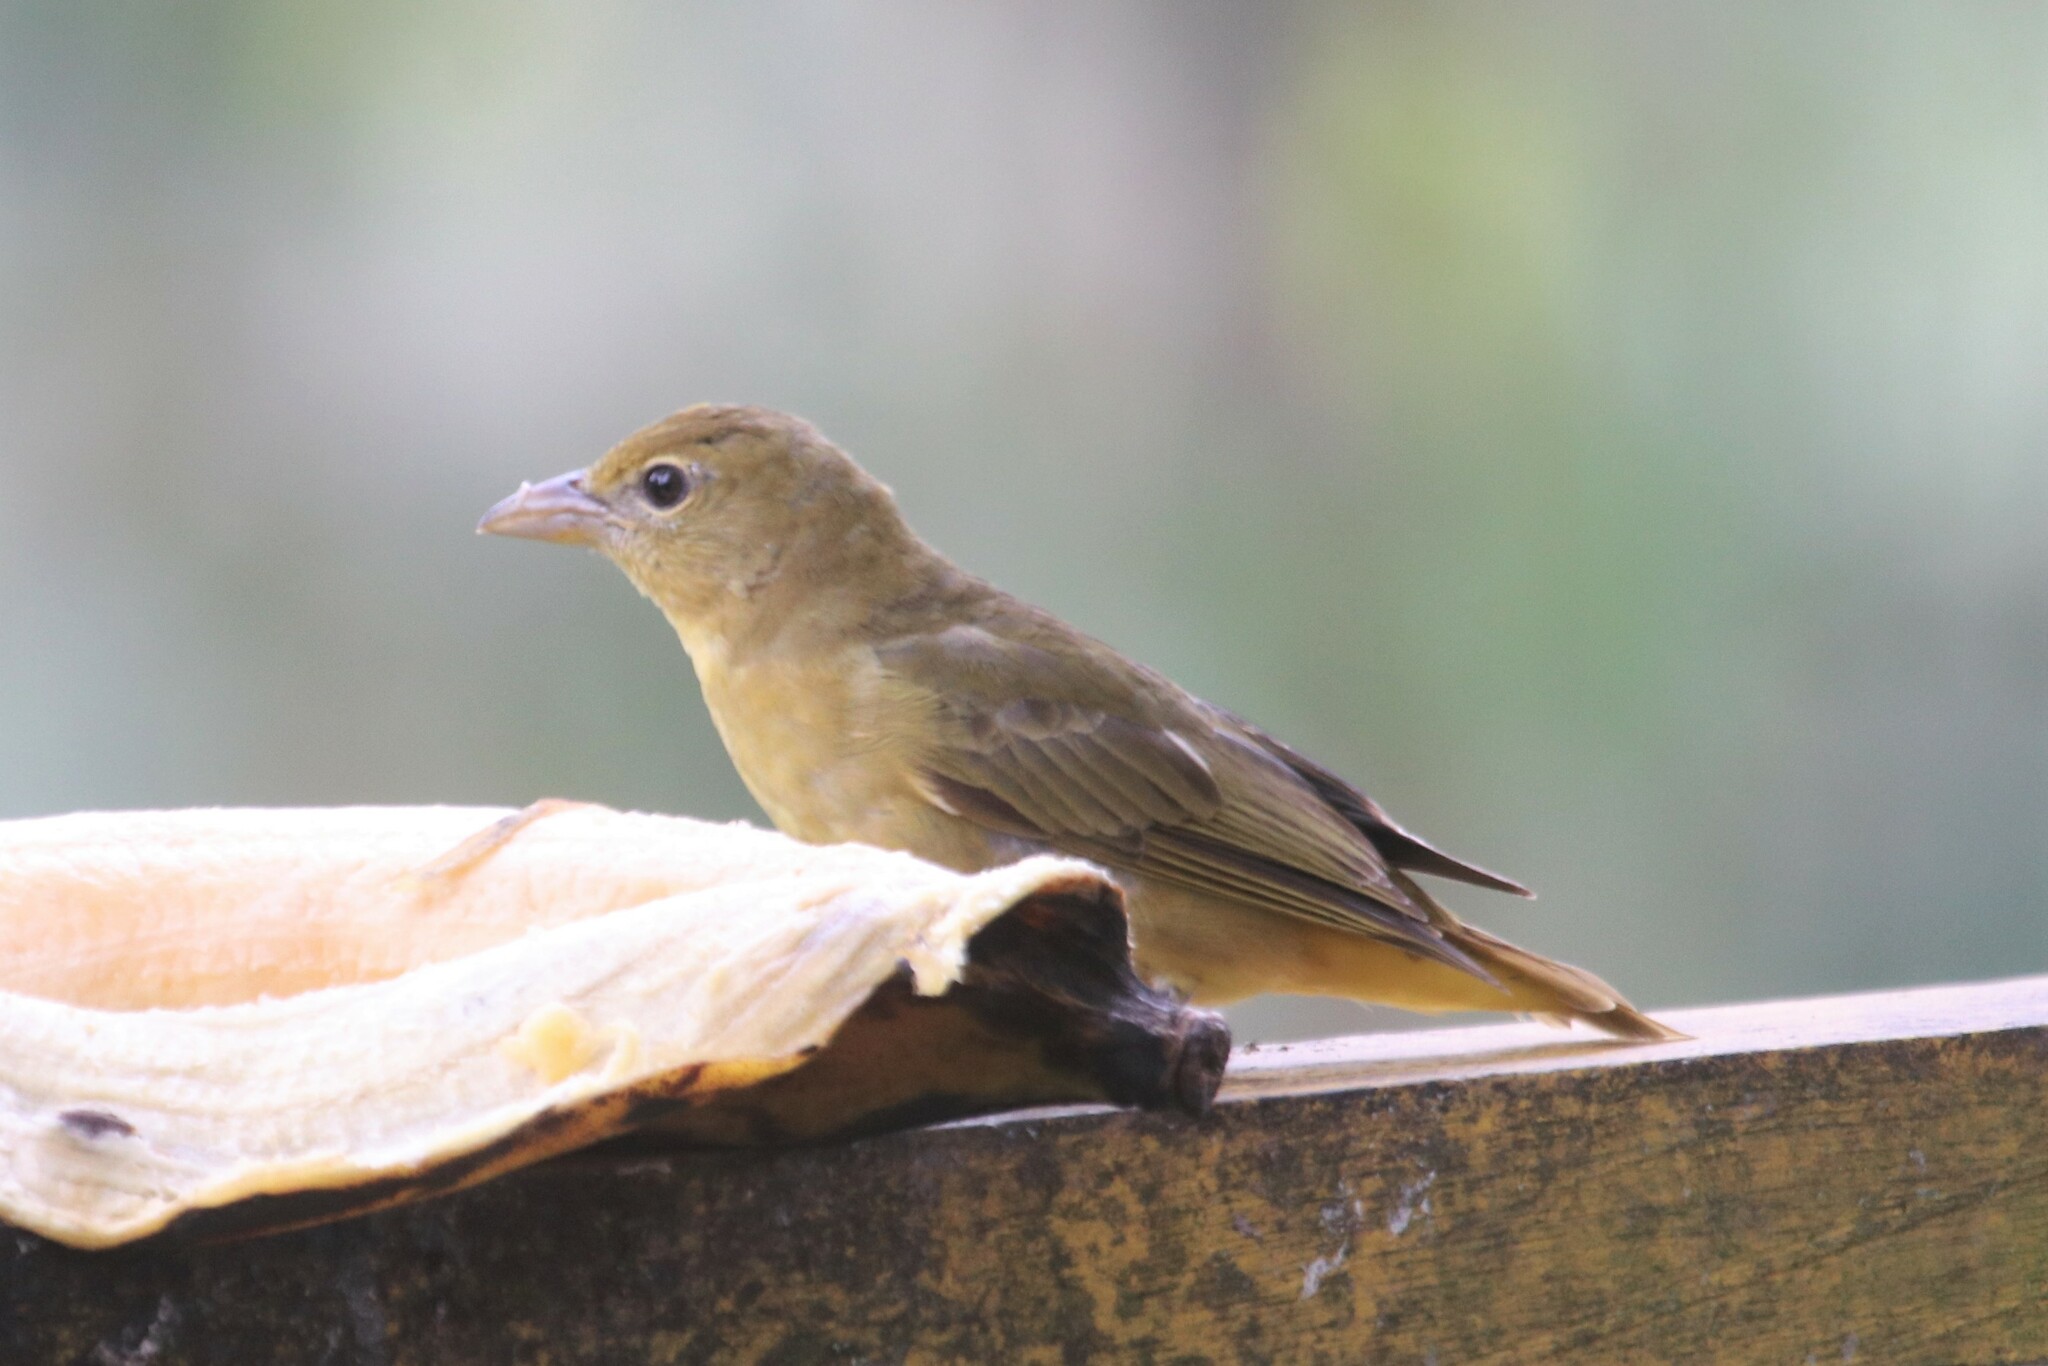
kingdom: Animalia
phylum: Chordata
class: Aves
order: Passeriformes
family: Cardinalidae
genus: Piranga
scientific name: Piranga rubra
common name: Summer tanager
